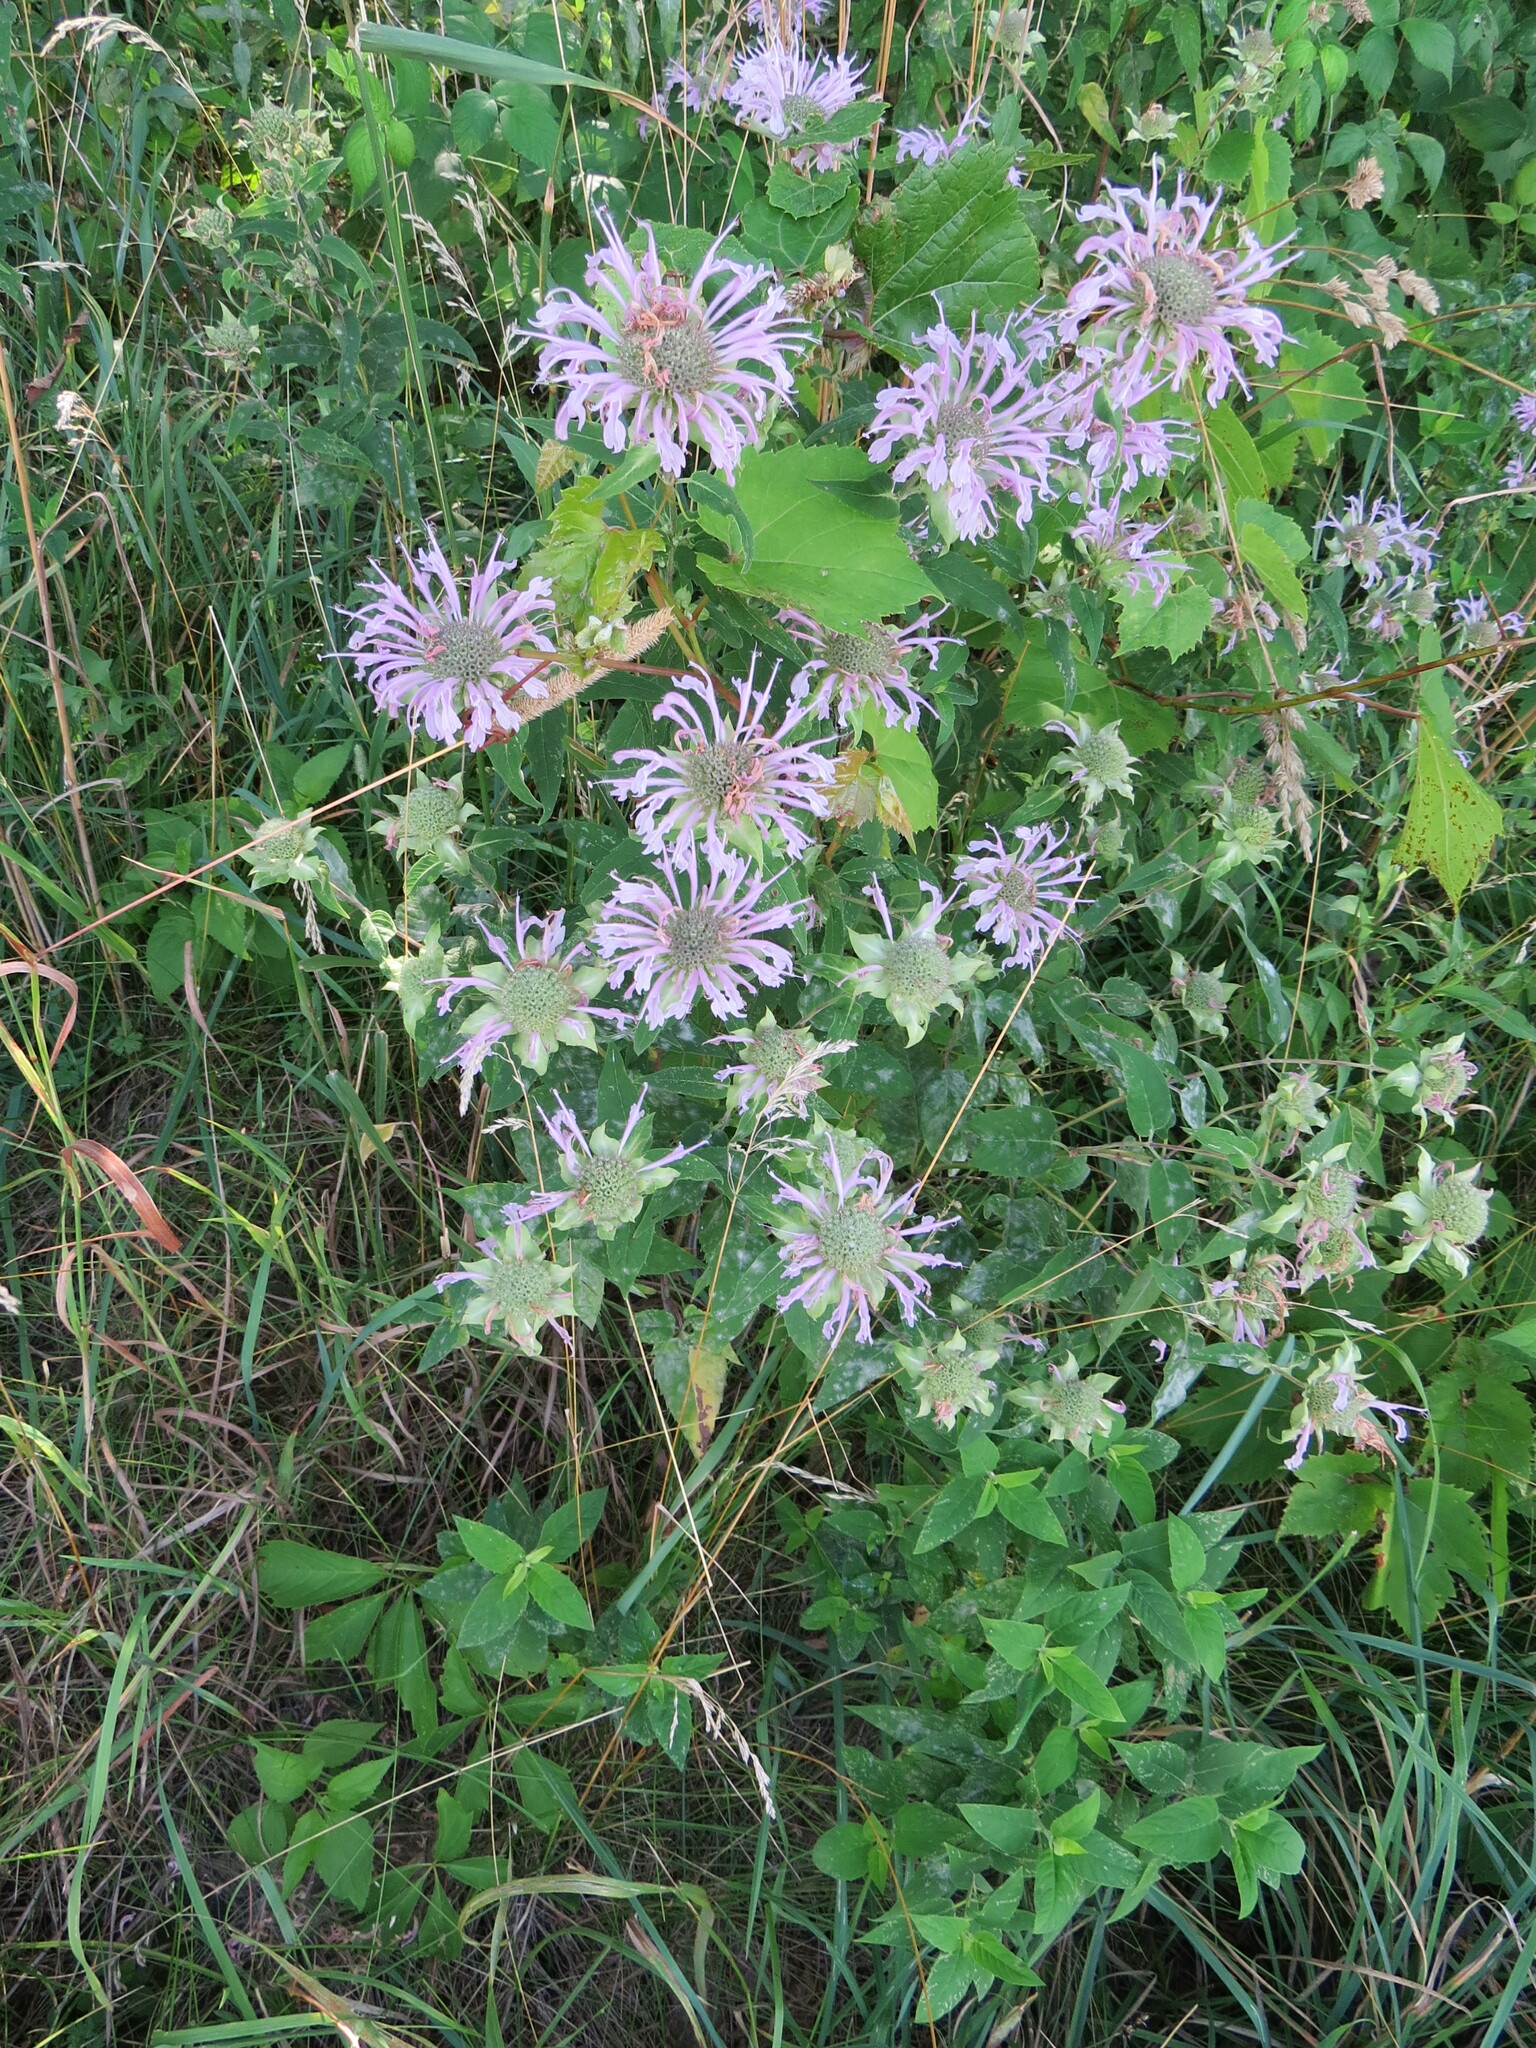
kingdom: Plantae
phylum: Tracheophyta
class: Magnoliopsida
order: Lamiales
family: Lamiaceae
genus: Monarda
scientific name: Monarda fistulosa
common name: Purple beebalm
